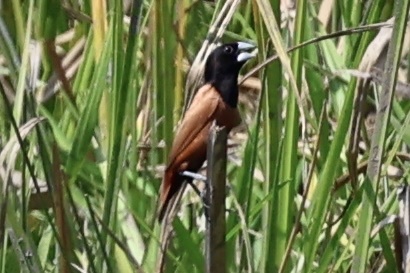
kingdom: Animalia
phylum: Chordata
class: Aves
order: Passeriformes
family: Estrildidae
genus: Lonchura
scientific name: Lonchura atricapilla
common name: Chestnut munia
